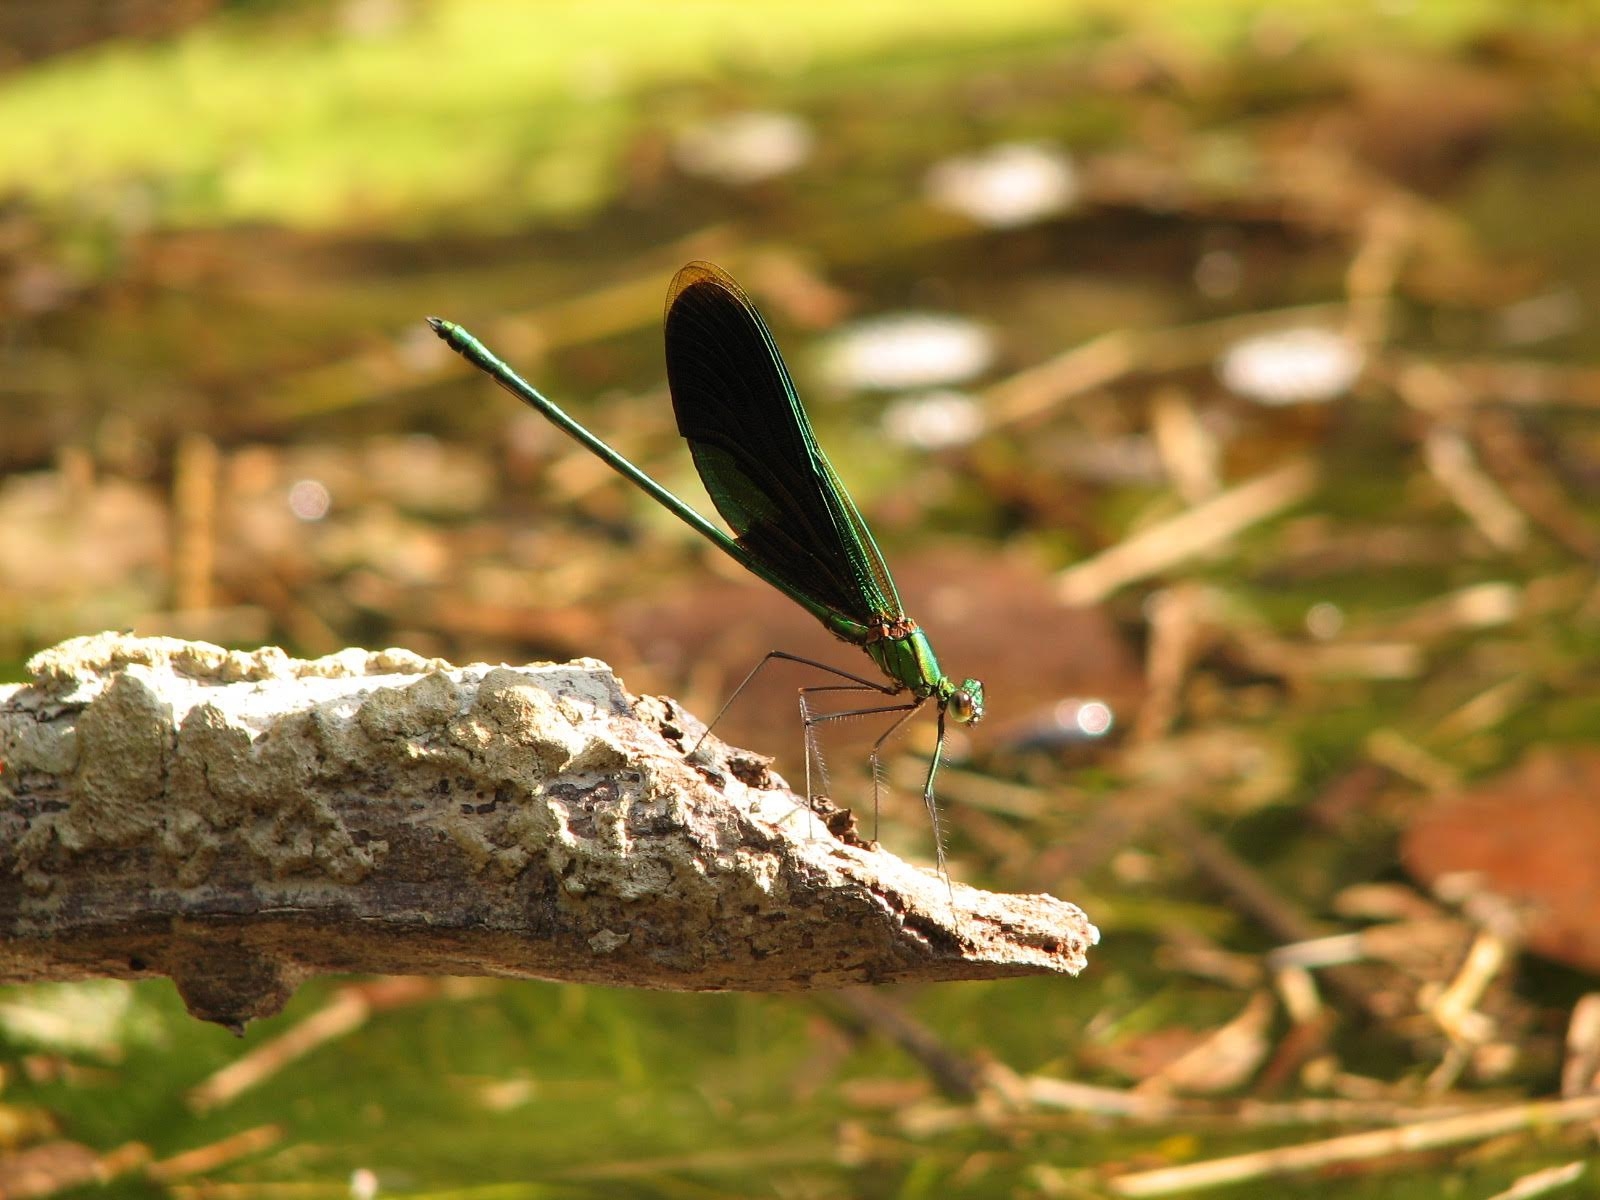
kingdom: Animalia
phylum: Arthropoda
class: Insecta
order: Odonata
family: Calopterygidae
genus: Neurobasis
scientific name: Neurobasis chinensis
